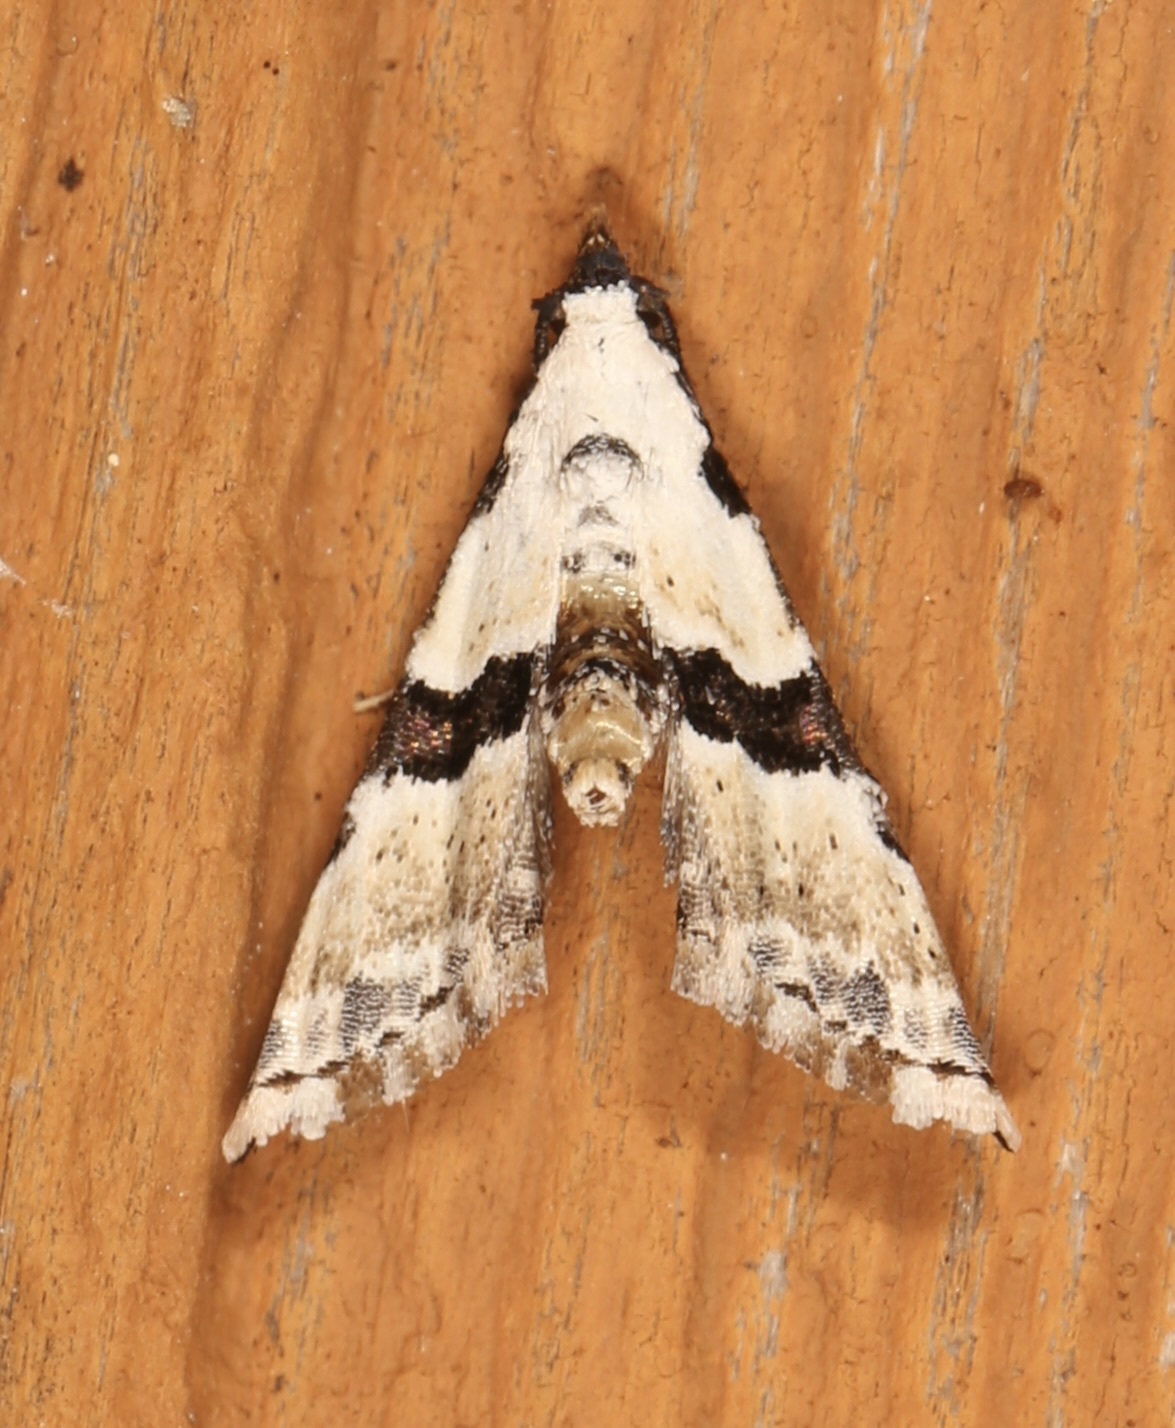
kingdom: Animalia
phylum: Arthropoda
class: Insecta
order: Lepidoptera
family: Noctuidae
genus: Nigetia
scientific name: Nigetia formosalis
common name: Thin-winged owlet
